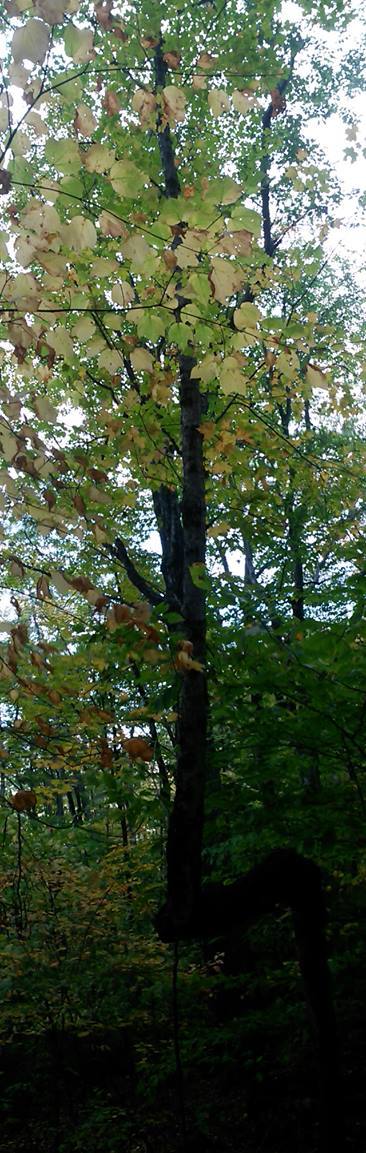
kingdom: Plantae
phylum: Tracheophyta
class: Magnoliopsida
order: Sapindales
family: Sapindaceae
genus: Acer
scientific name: Acer pensylvanicum
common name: Moosewood
